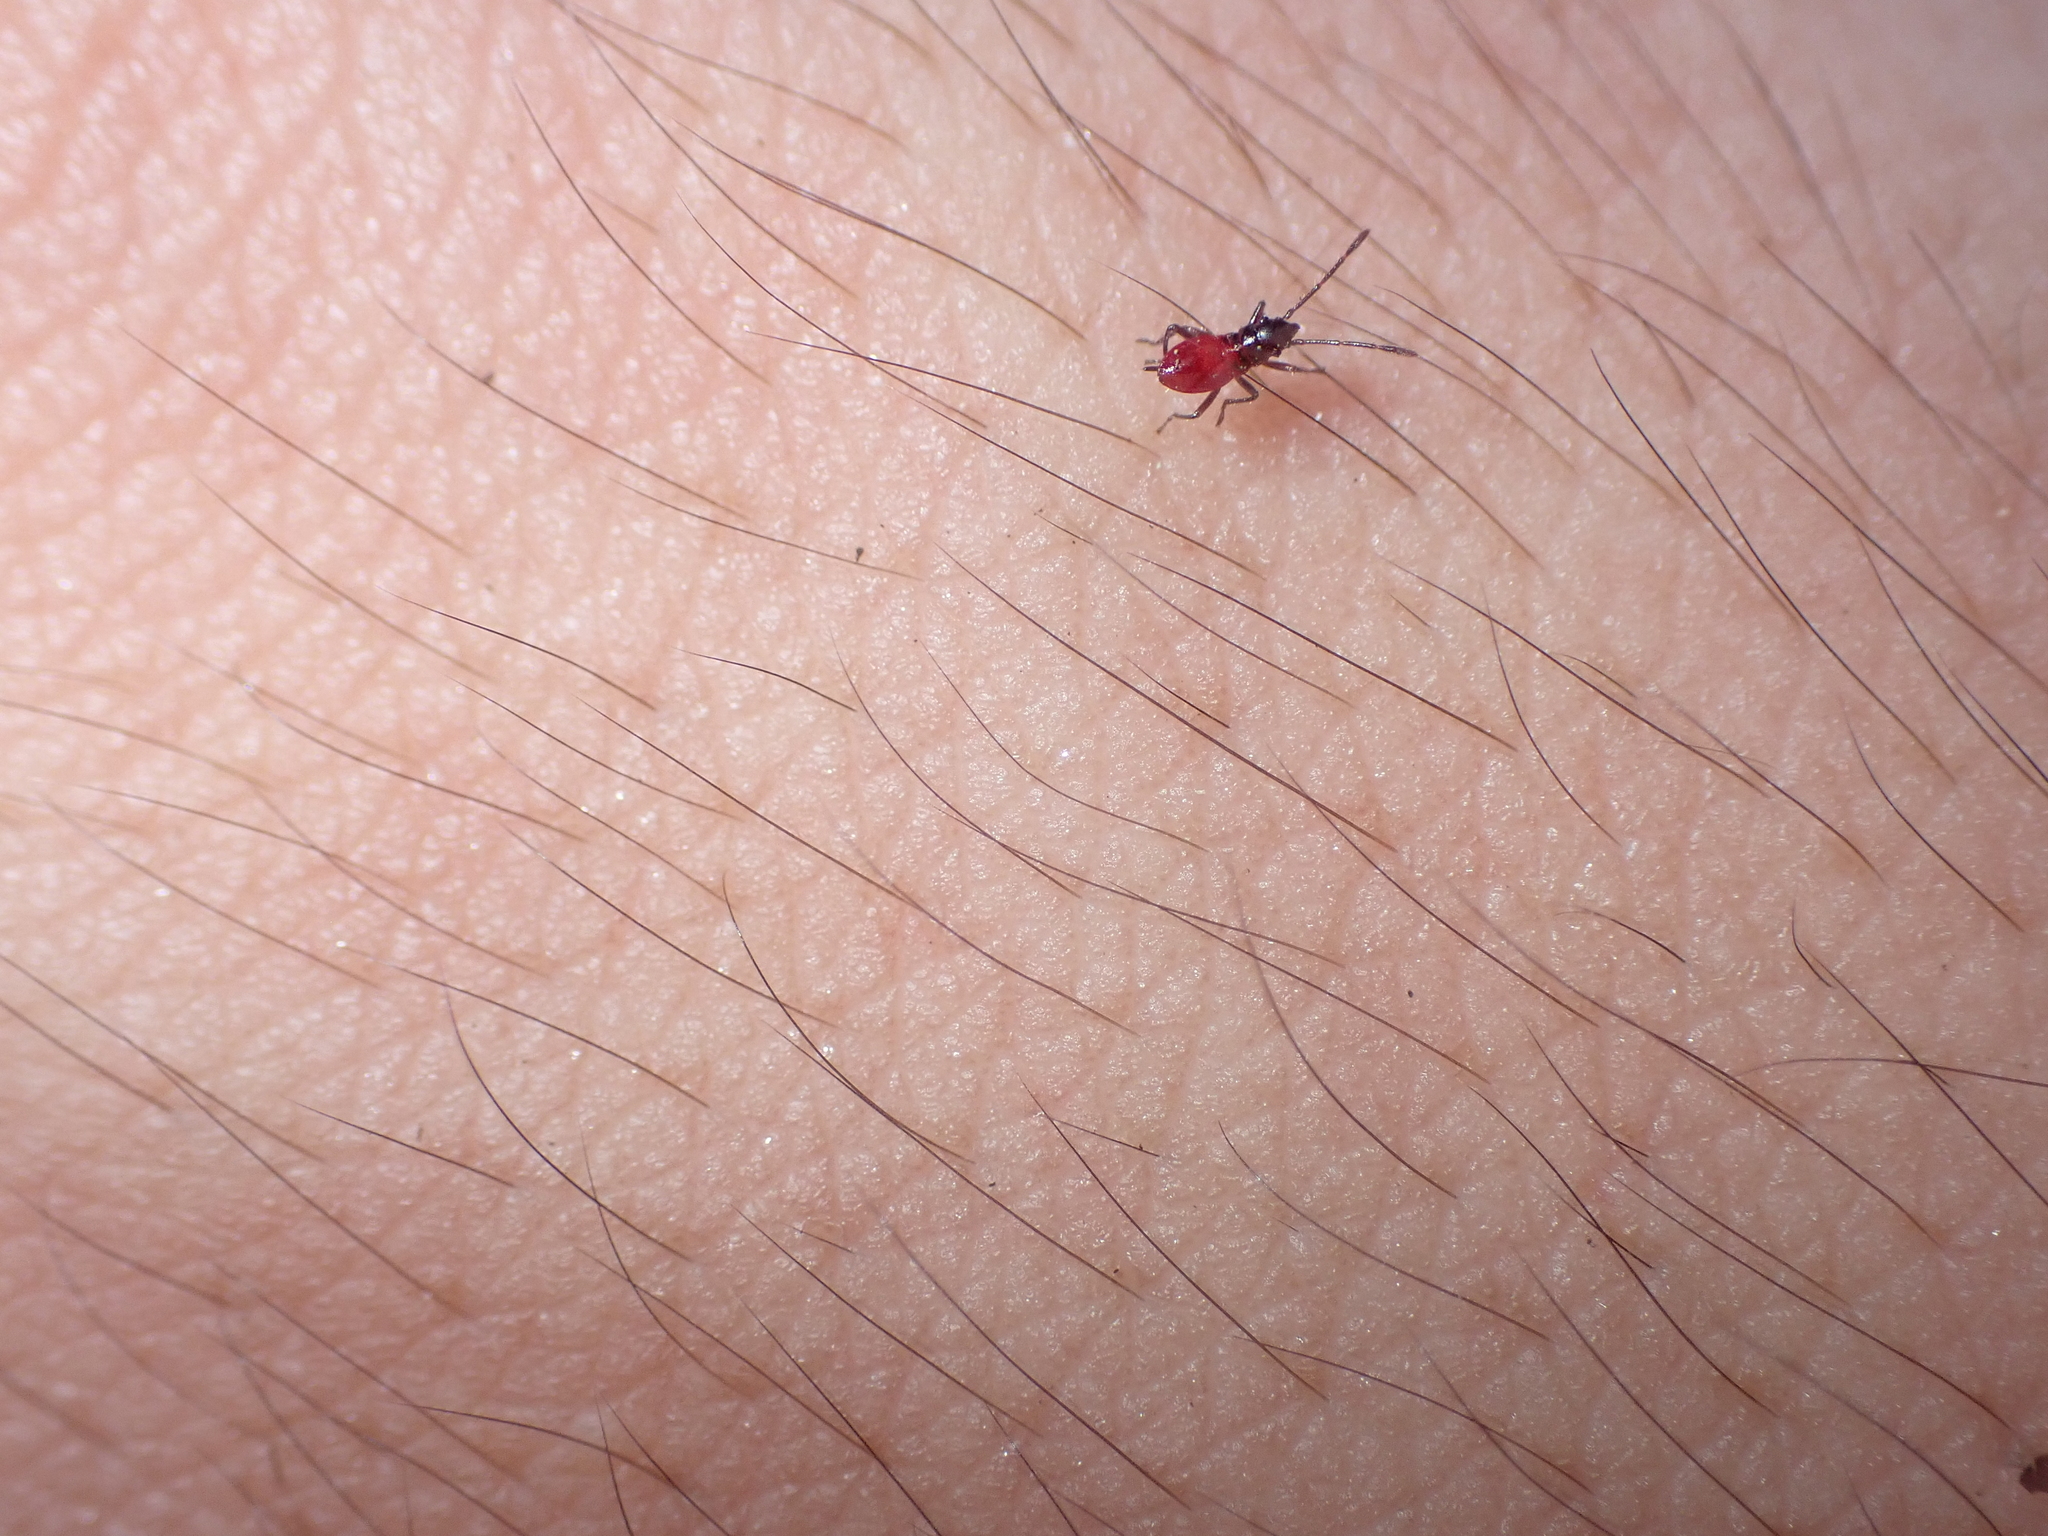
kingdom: Animalia
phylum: Arthropoda
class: Insecta
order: Hemiptera
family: Lygaeidae
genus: Arocatus
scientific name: Arocatus rusticus
